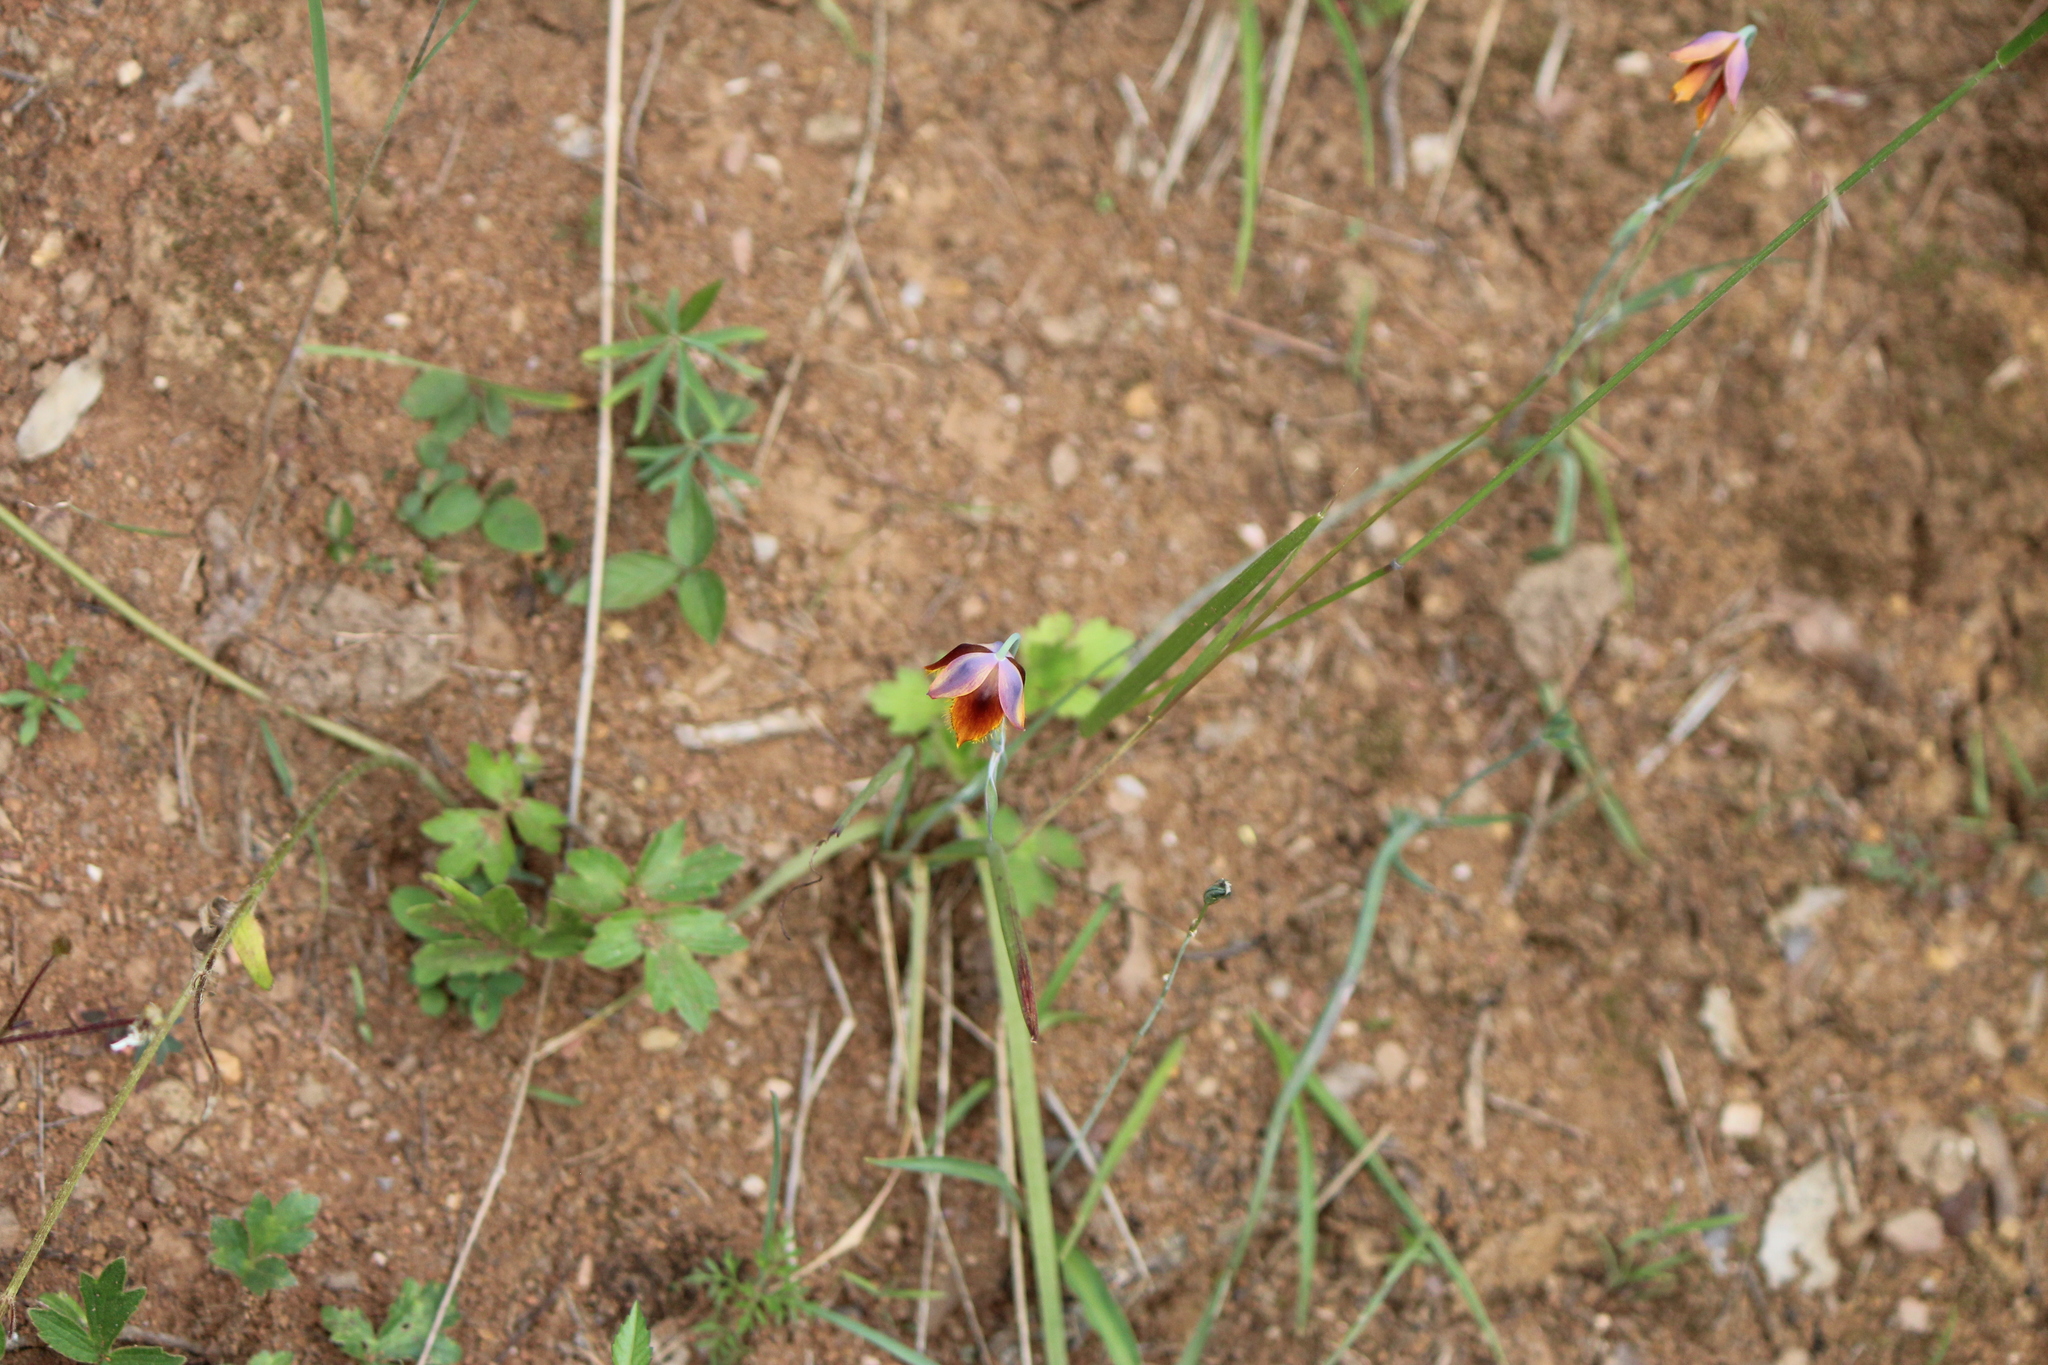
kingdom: Plantae
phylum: Tracheophyta
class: Liliopsida
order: Liliales
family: Liliaceae
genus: Calochortus
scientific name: Calochortus barbatus
